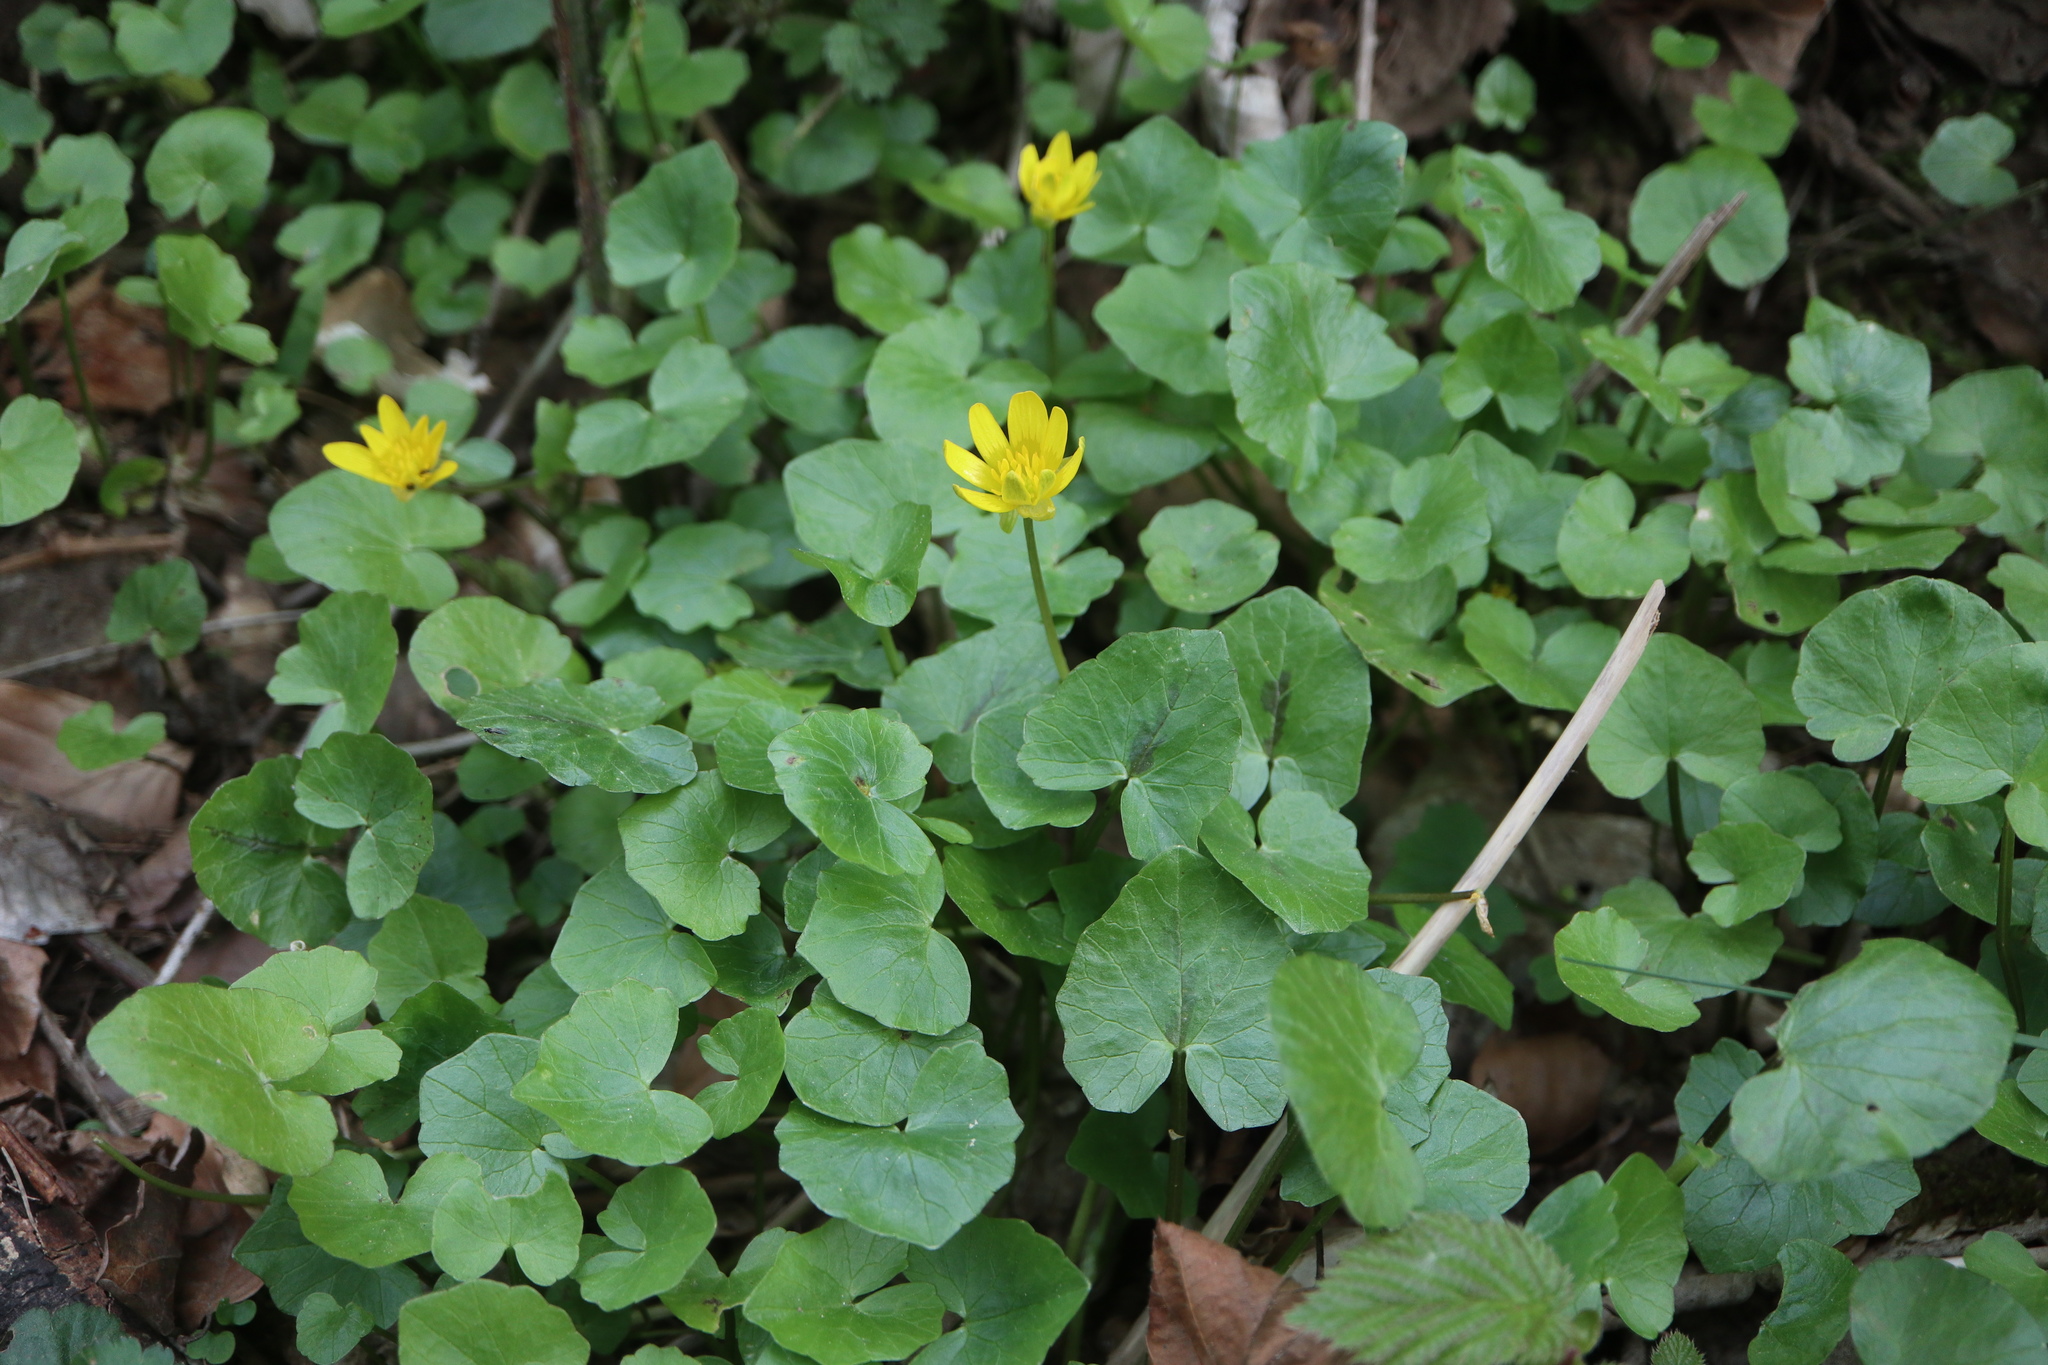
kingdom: Plantae
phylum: Tracheophyta
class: Magnoliopsida
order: Ranunculales
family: Ranunculaceae
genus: Ficaria
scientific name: Ficaria verna
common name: Lesser celandine
